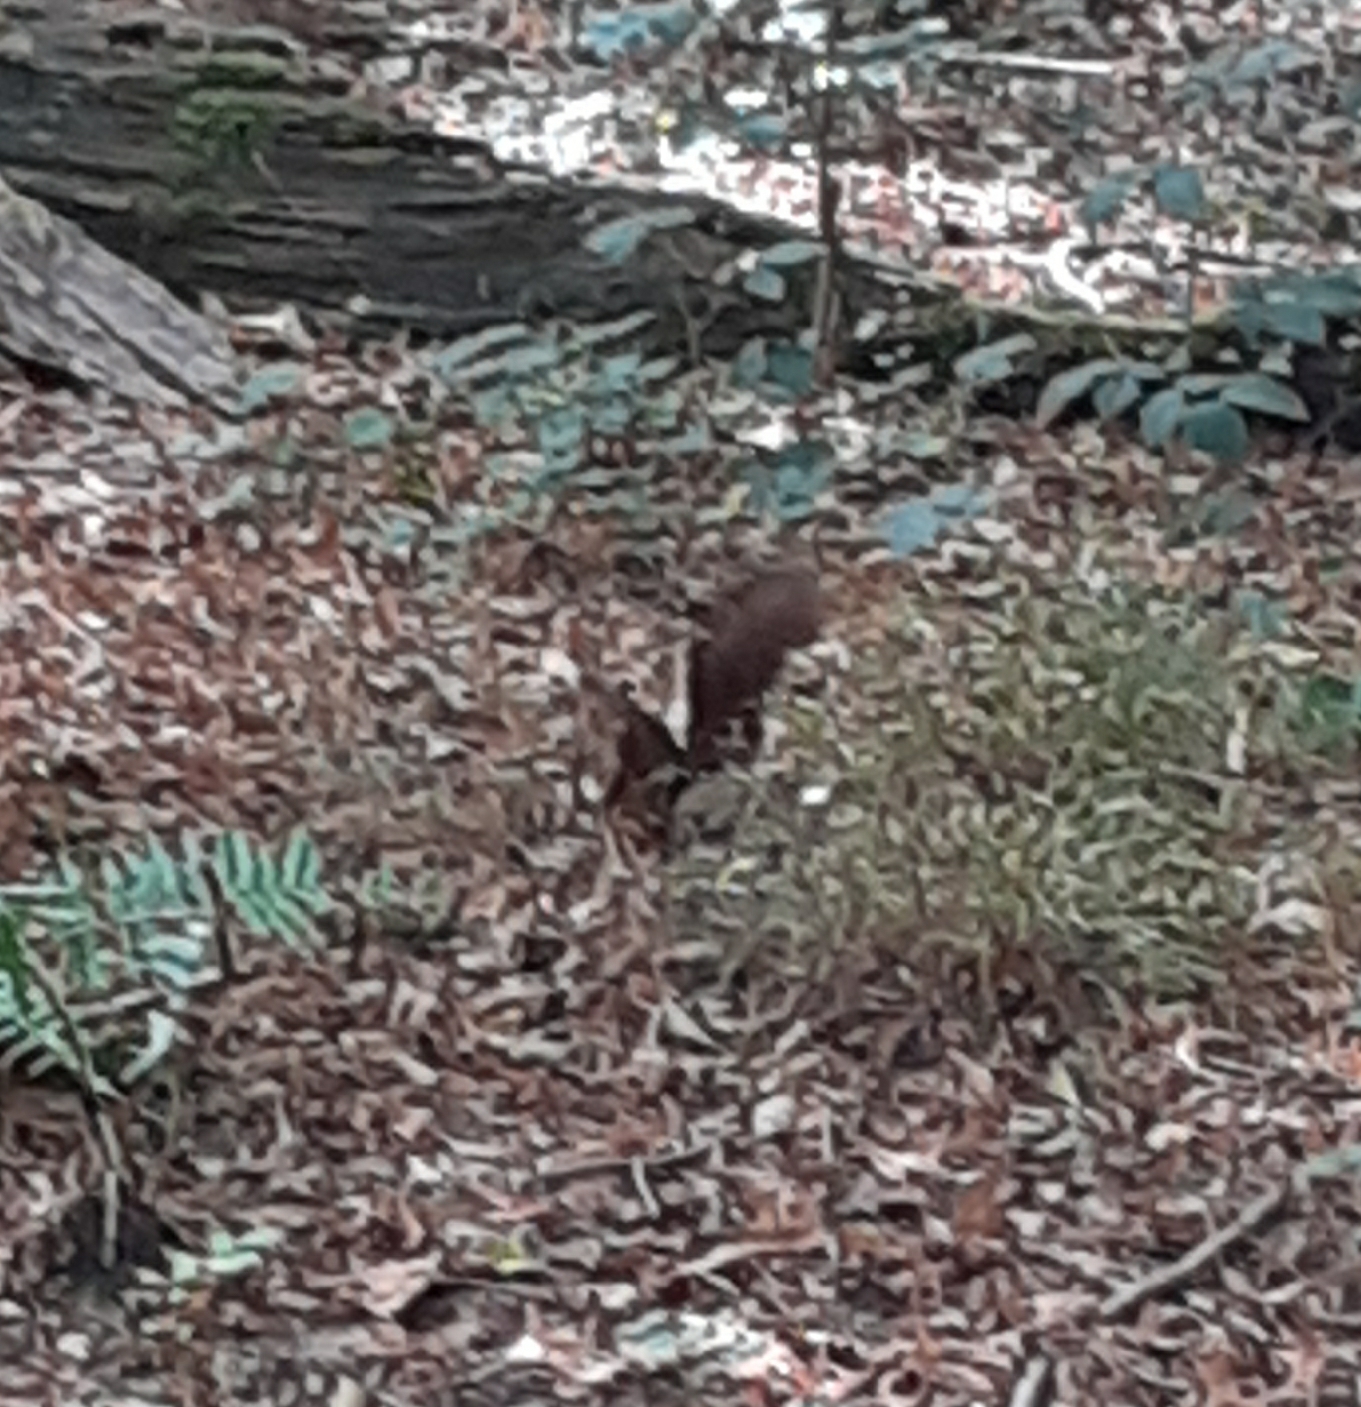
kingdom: Animalia
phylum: Chordata
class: Mammalia
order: Rodentia
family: Sciuridae
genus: Sciurus
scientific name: Sciurus vulgaris
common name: Eurasian red squirrel
